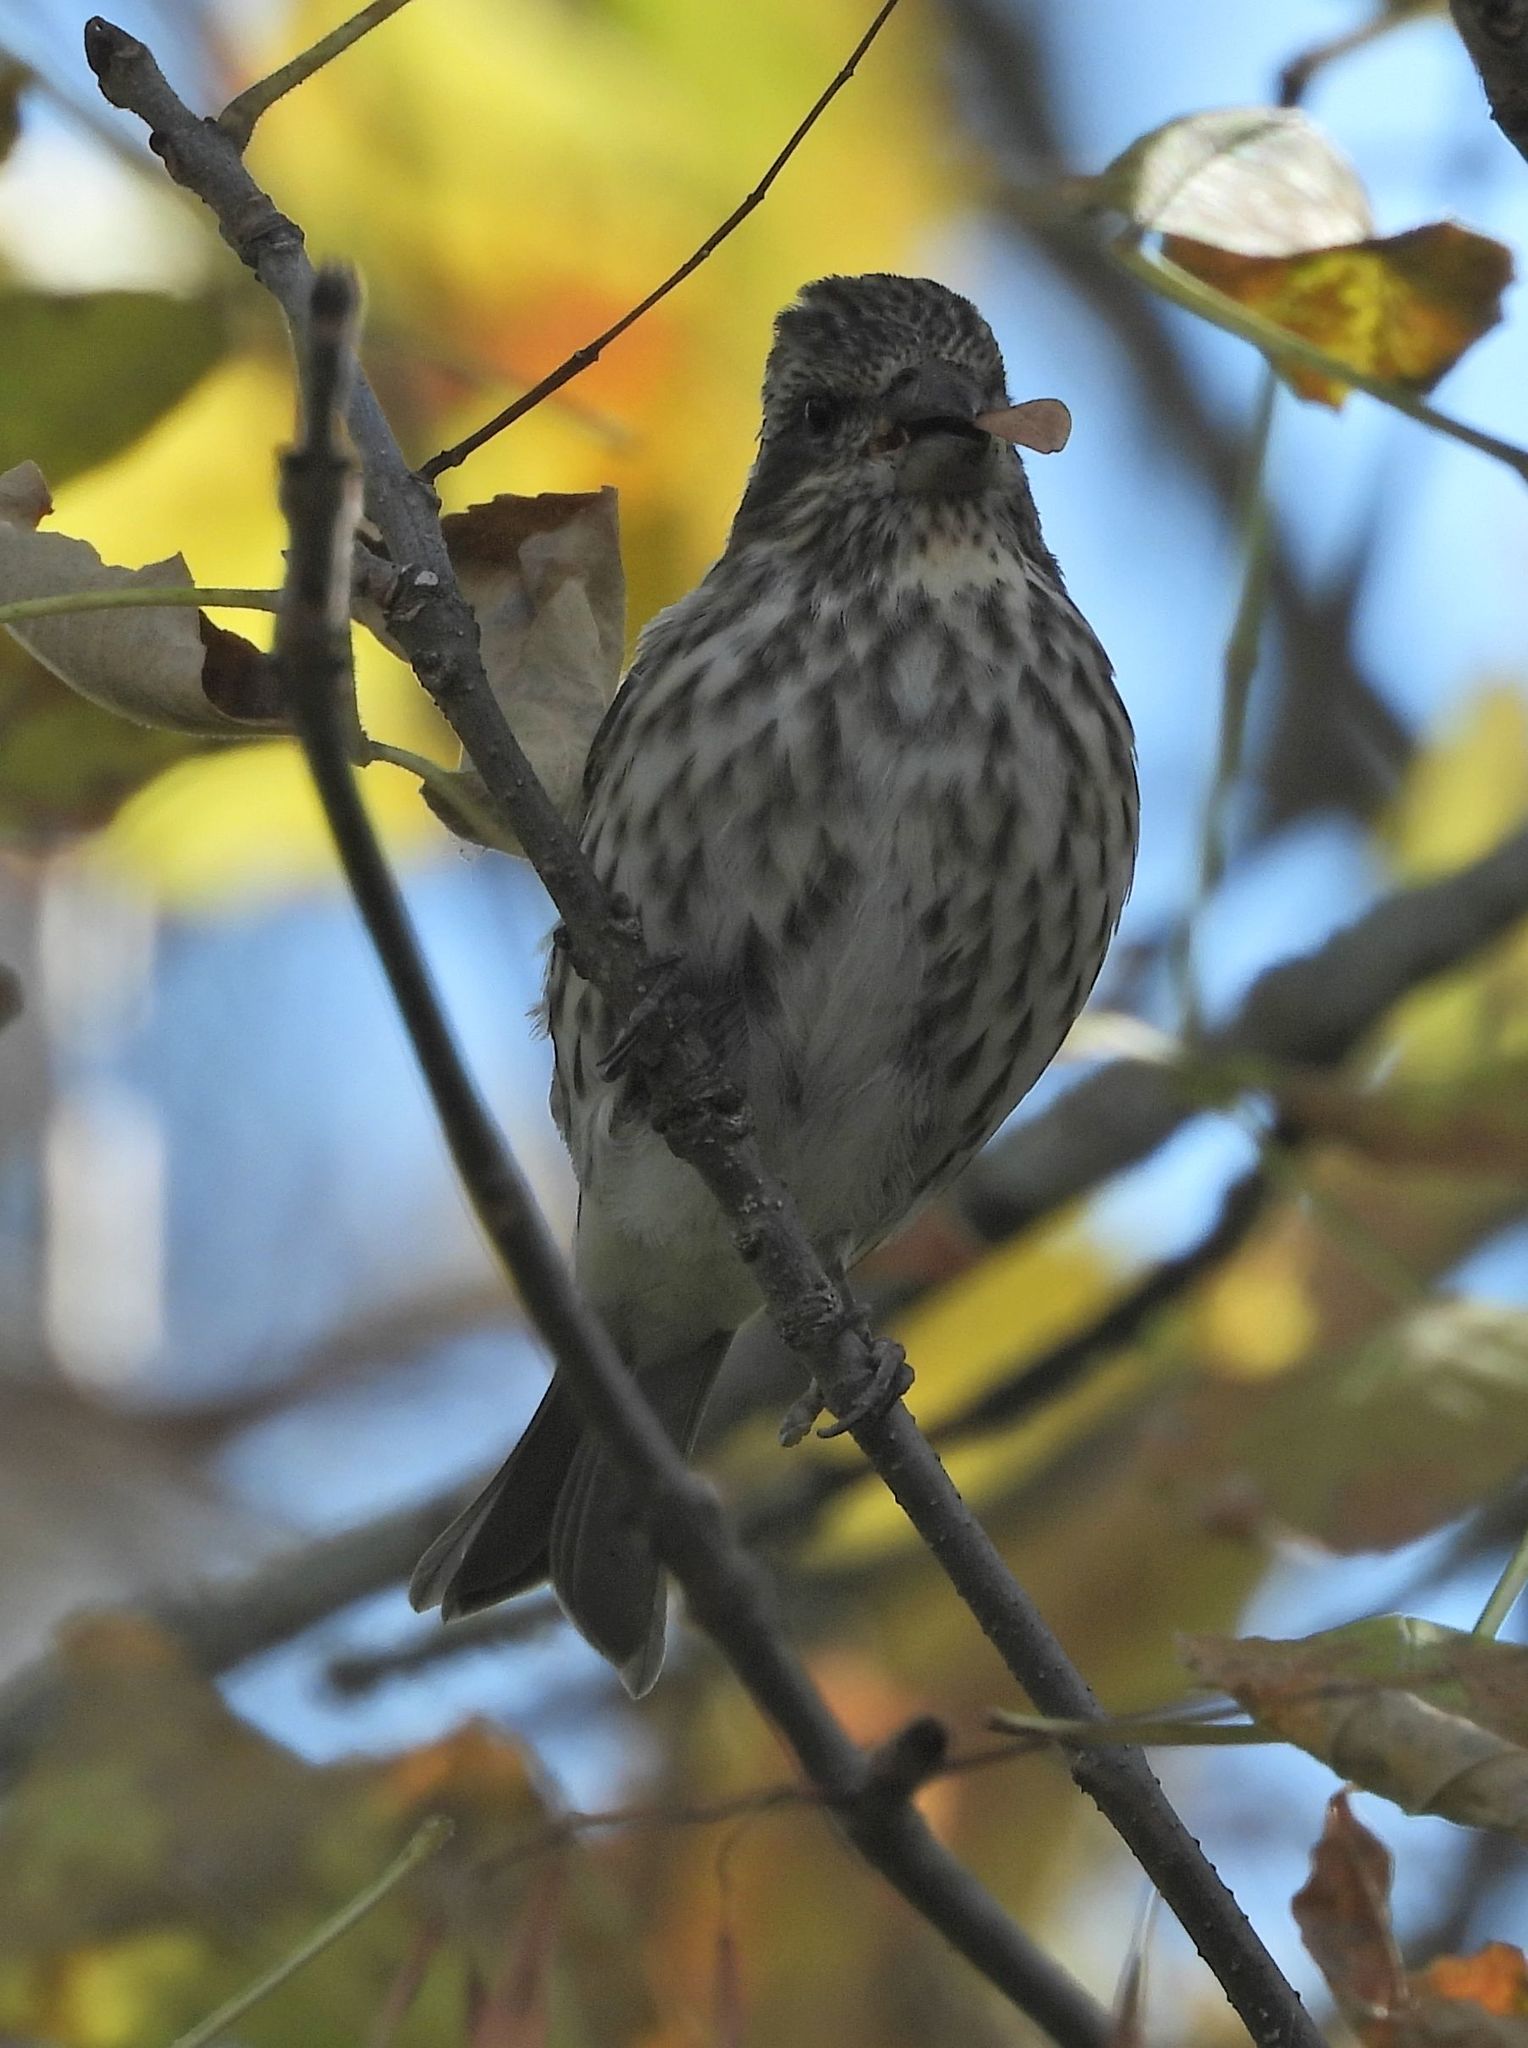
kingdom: Animalia
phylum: Chordata
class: Aves
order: Passeriformes
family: Fringillidae
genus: Haemorhous
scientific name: Haemorhous purpureus
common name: Purple finch
